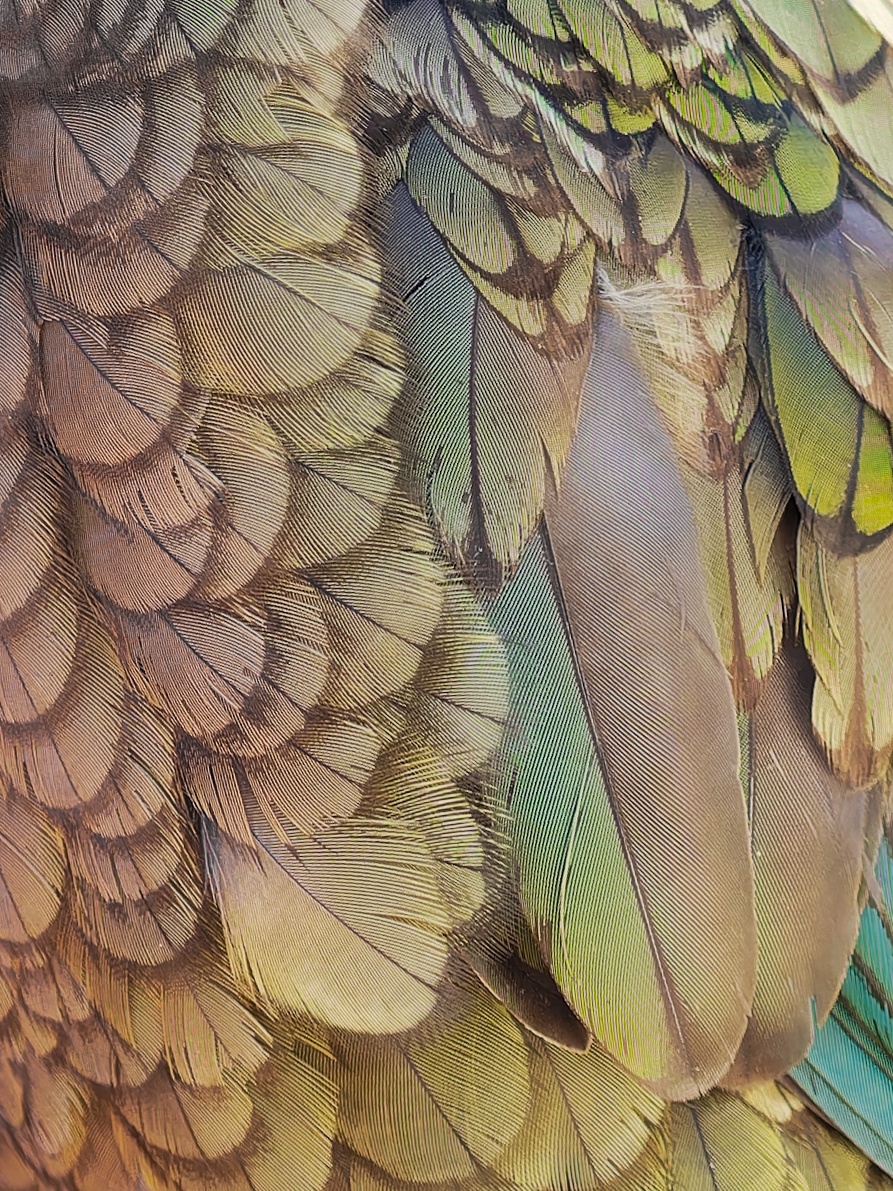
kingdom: Animalia
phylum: Chordata
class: Aves
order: Psittaciformes
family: Psittacidae
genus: Nestor
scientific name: Nestor notabilis
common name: Kea
